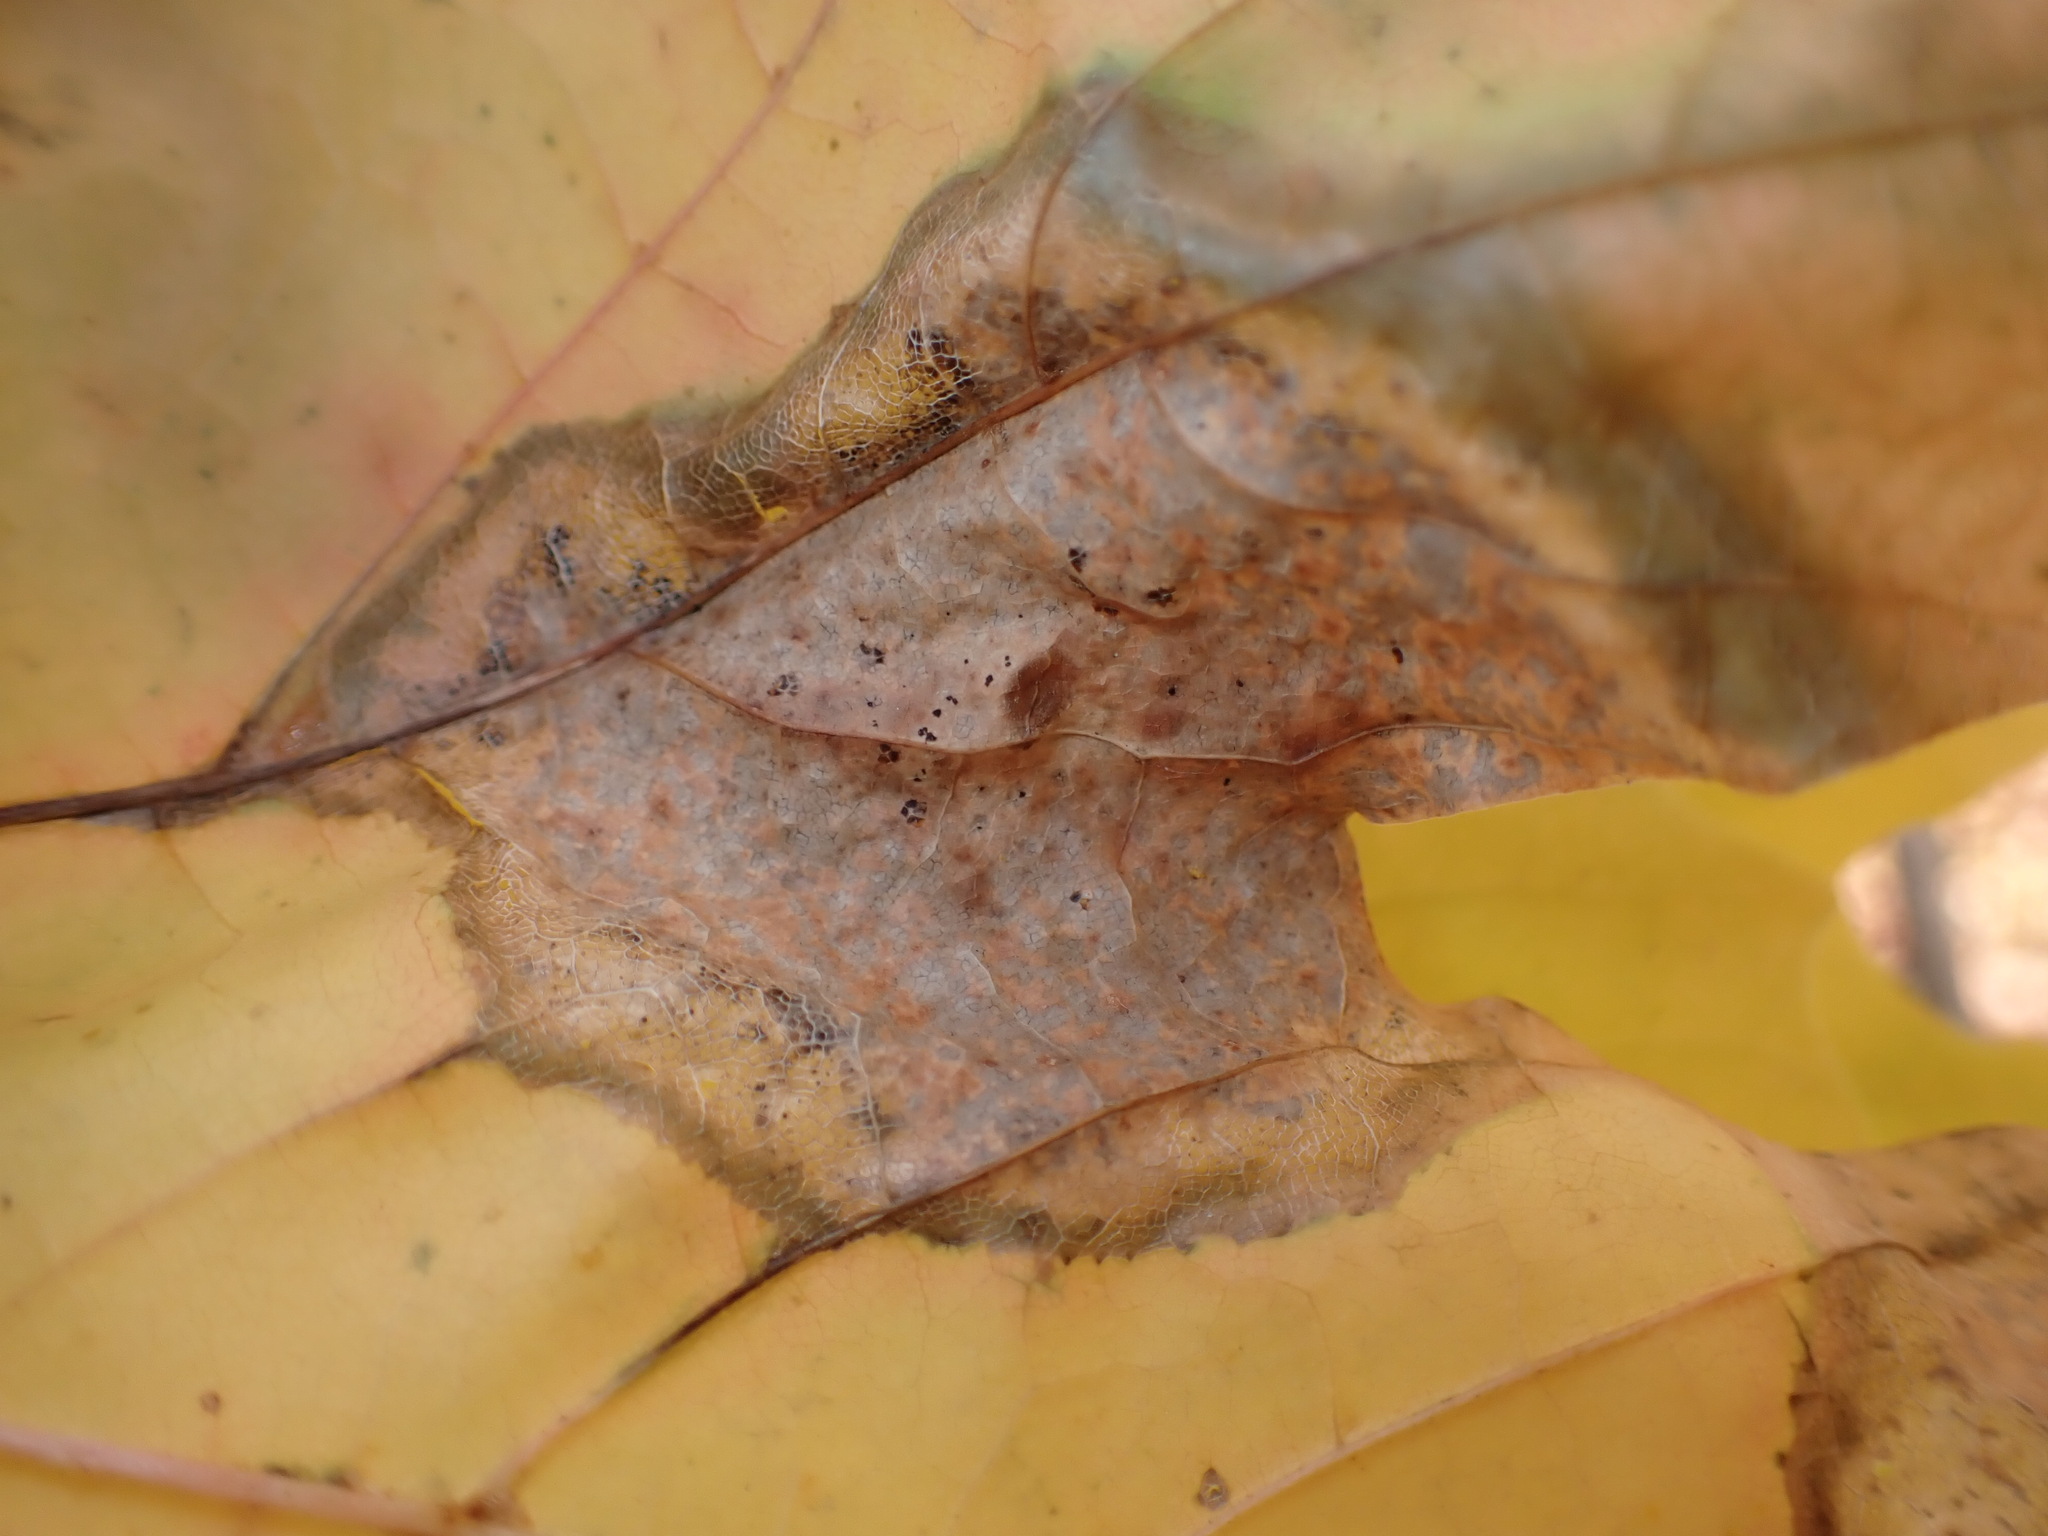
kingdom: Fungi
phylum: Ascomycota
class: Leotiomycetes
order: Rhytismatales
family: Rhytismataceae
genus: Rhytisma
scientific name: Rhytisma acerinum
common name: European tar spot
